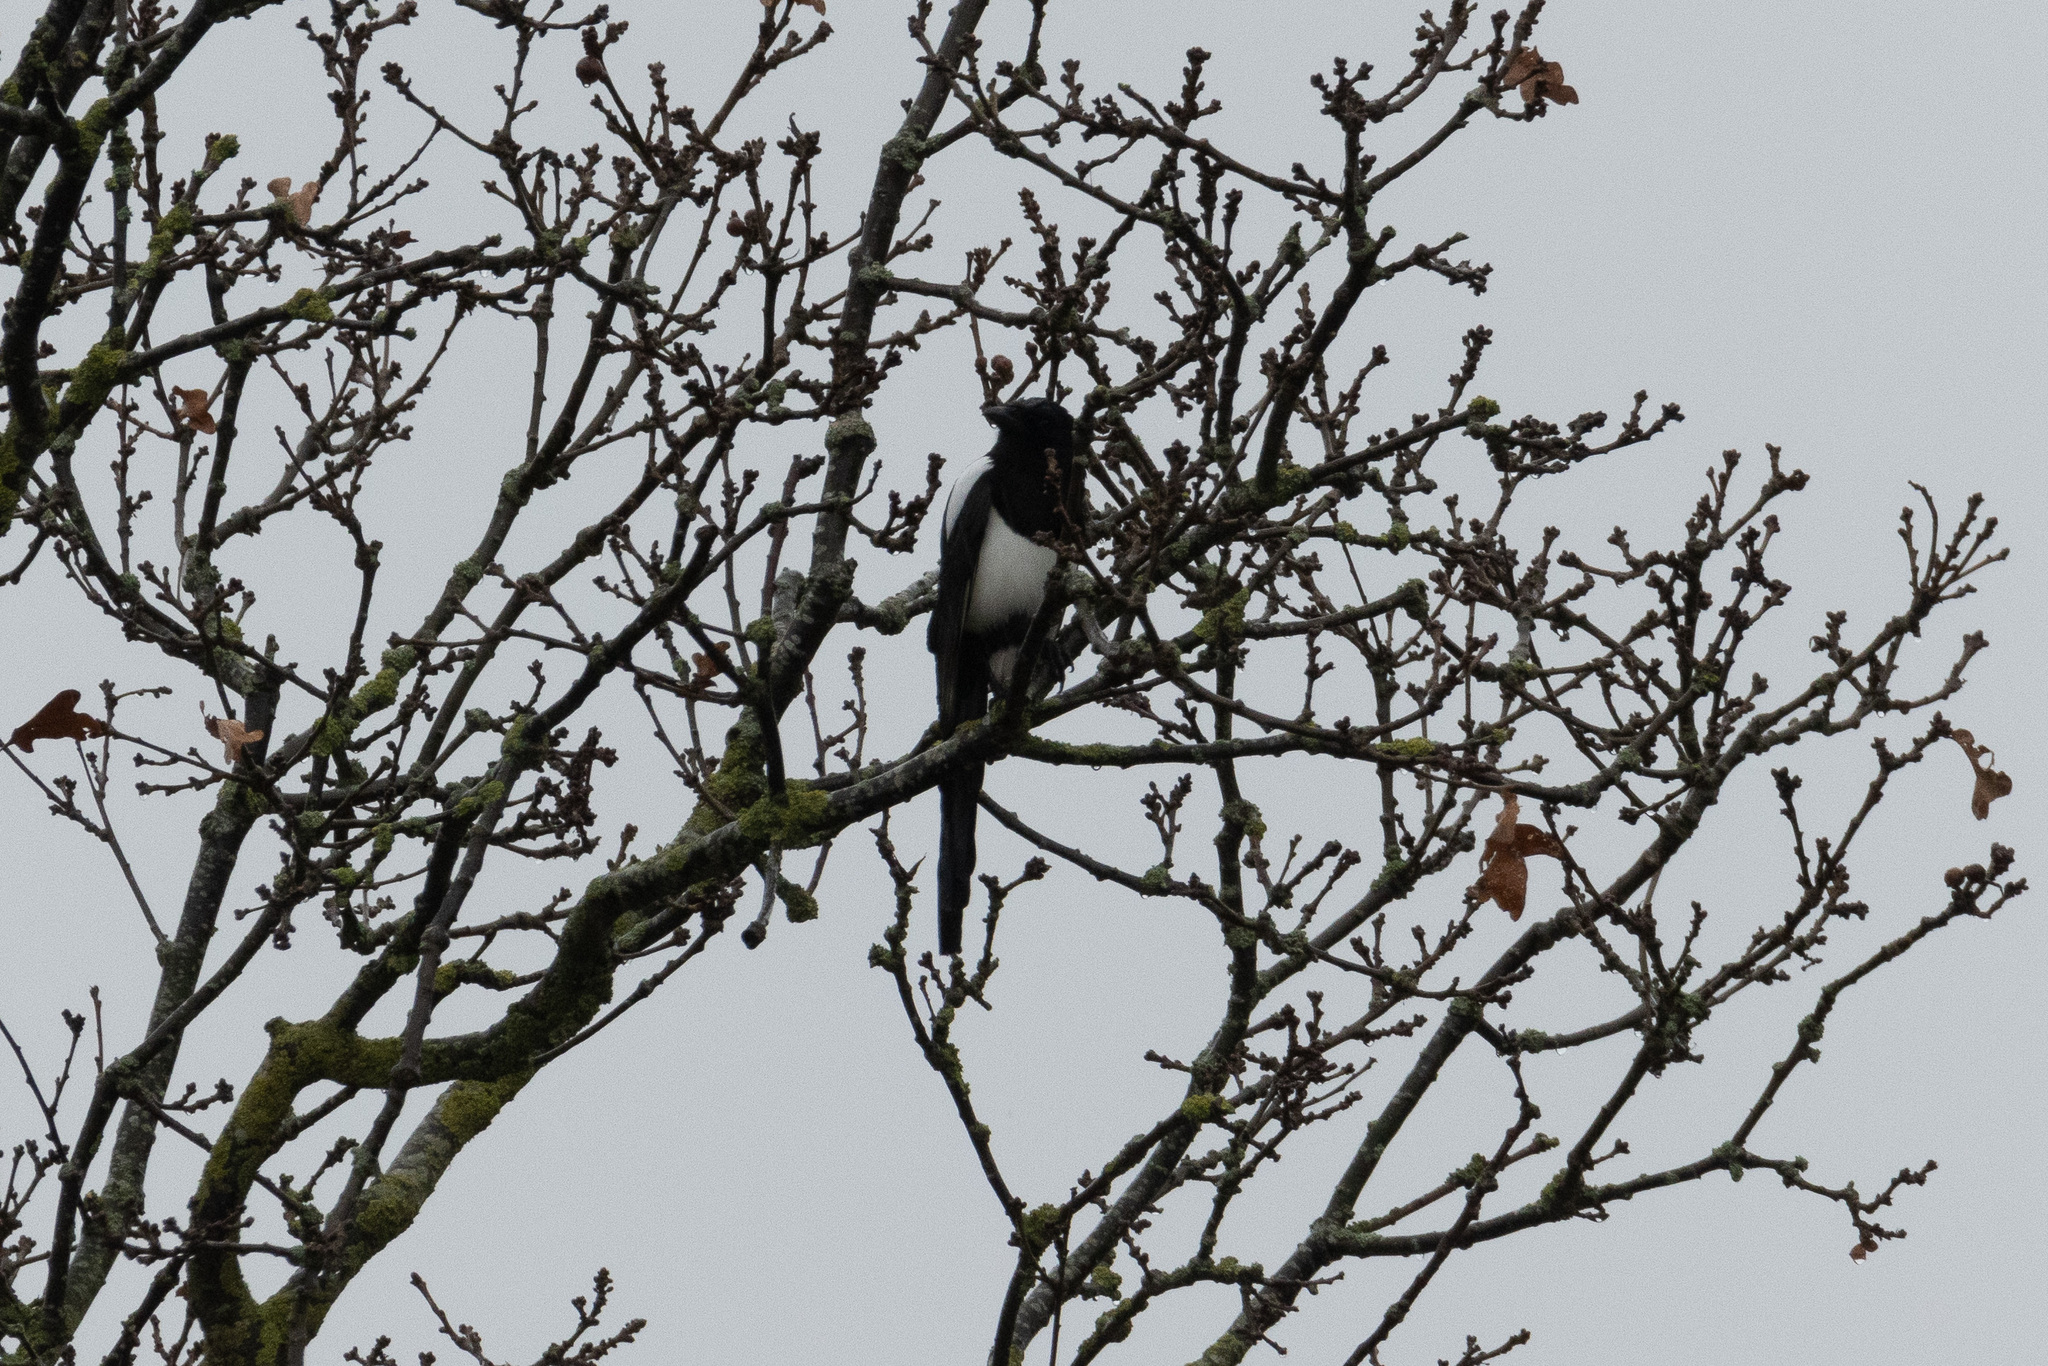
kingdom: Animalia
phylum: Chordata
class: Aves
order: Passeriformes
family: Corvidae
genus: Pica
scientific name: Pica pica
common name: Eurasian magpie
